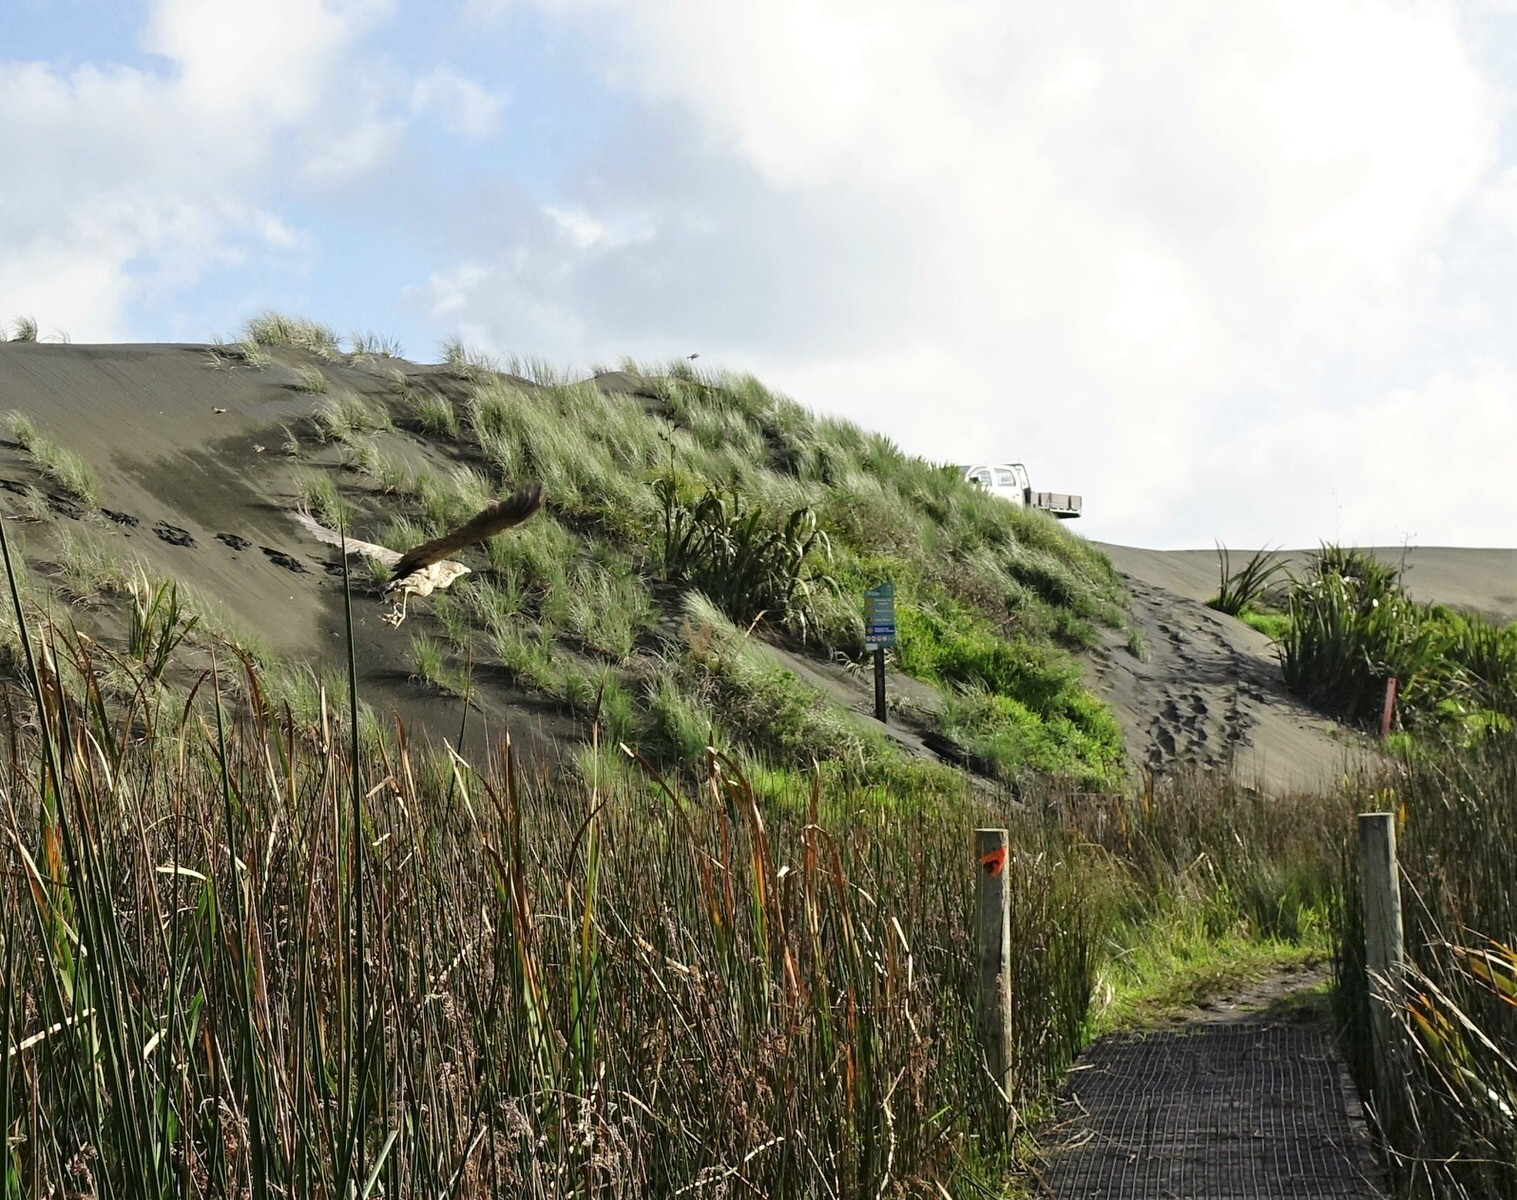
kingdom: Animalia
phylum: Chordata
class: Aves
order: Pelecaniformes
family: Ardeidae
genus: Botaurus
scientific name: Botaurus poiciloptilus
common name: Australasian bittern
